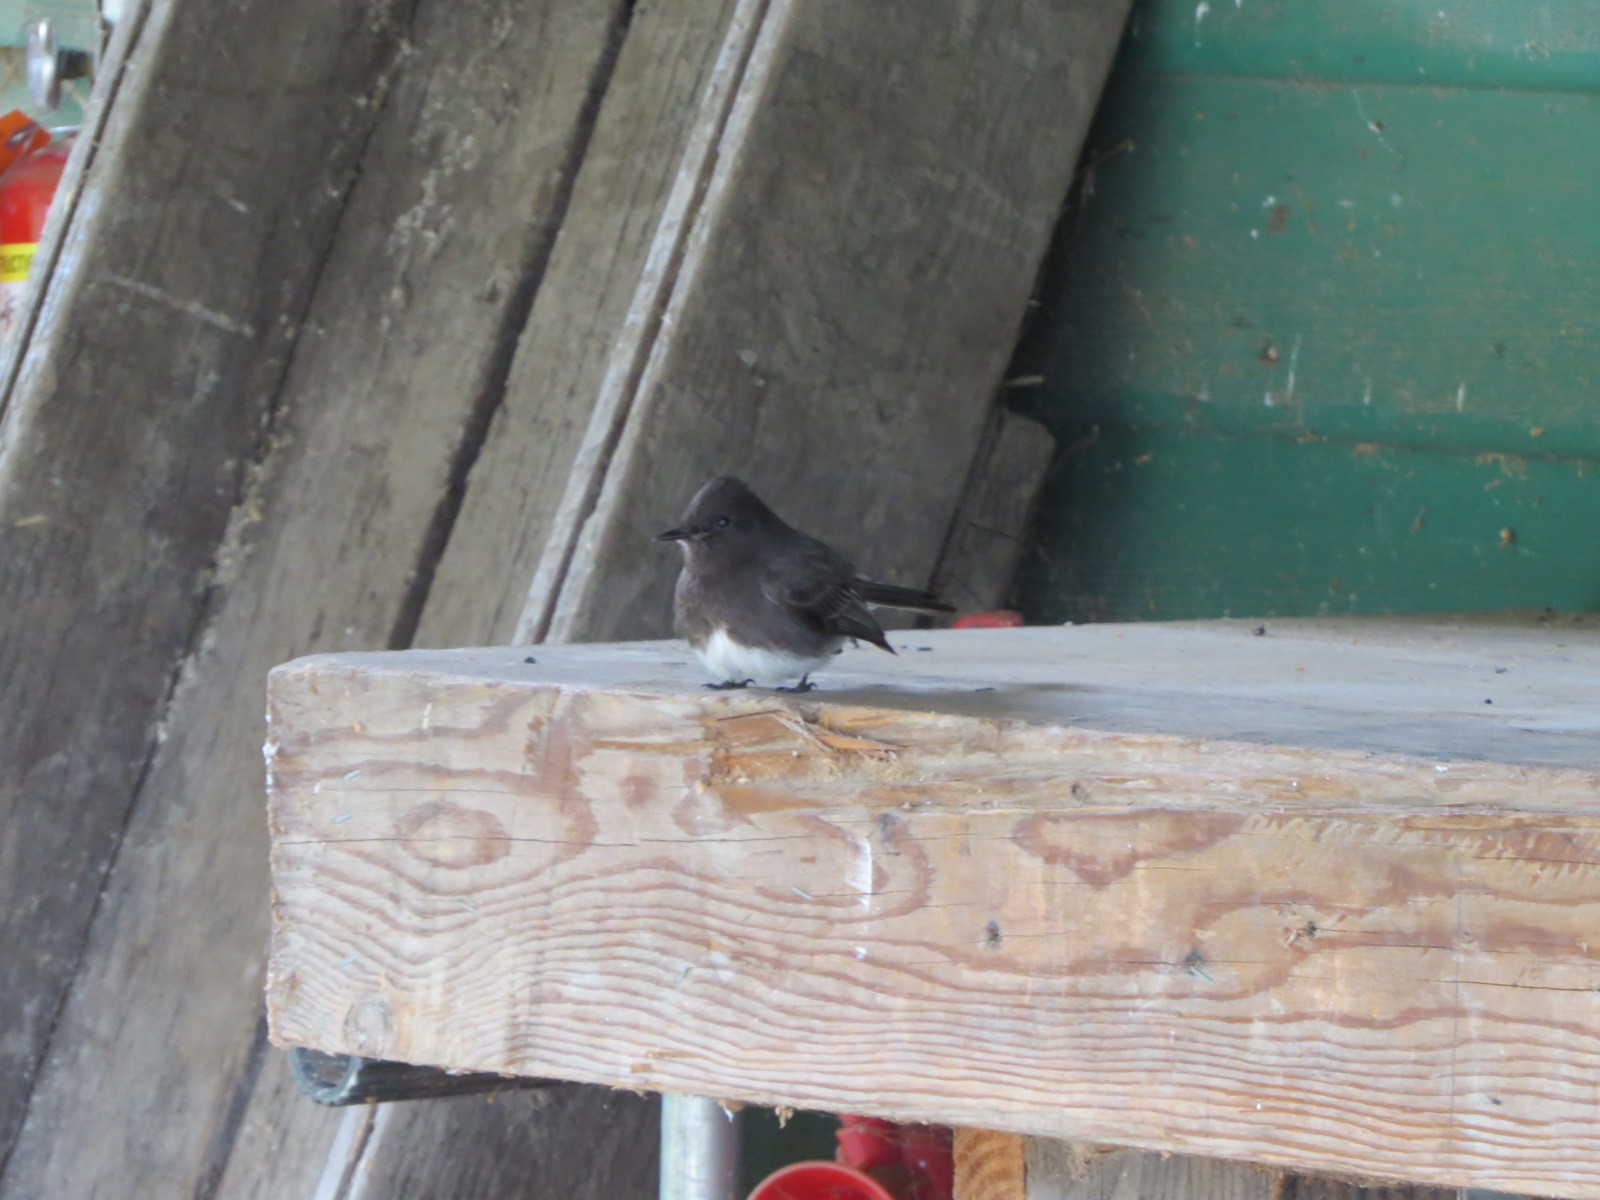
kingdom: Animalia
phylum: Chordata
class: Aves
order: Passeriformes
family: Tyrannidae
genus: Sayornis
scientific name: Sayornis nigricans
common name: Black phoebe
